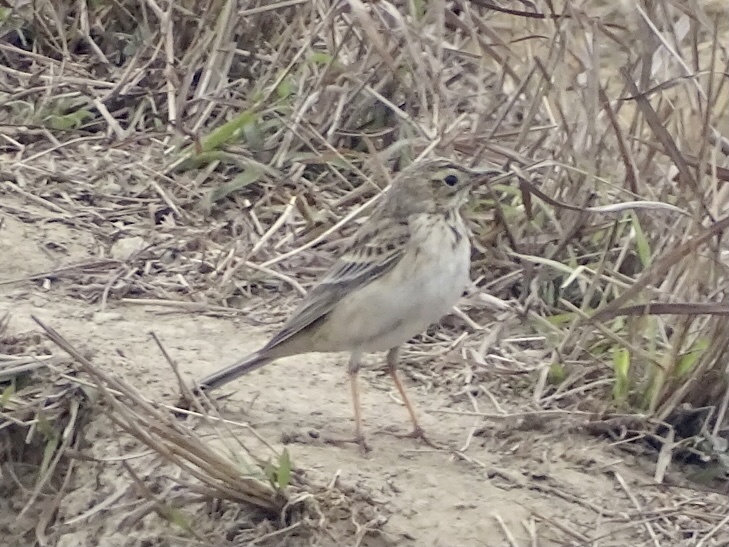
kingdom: Animalia
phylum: Chordata
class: Aves
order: Passeriformes
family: Motacillidae
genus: Anthus
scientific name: Anthus richardi
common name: Richard's pipit
